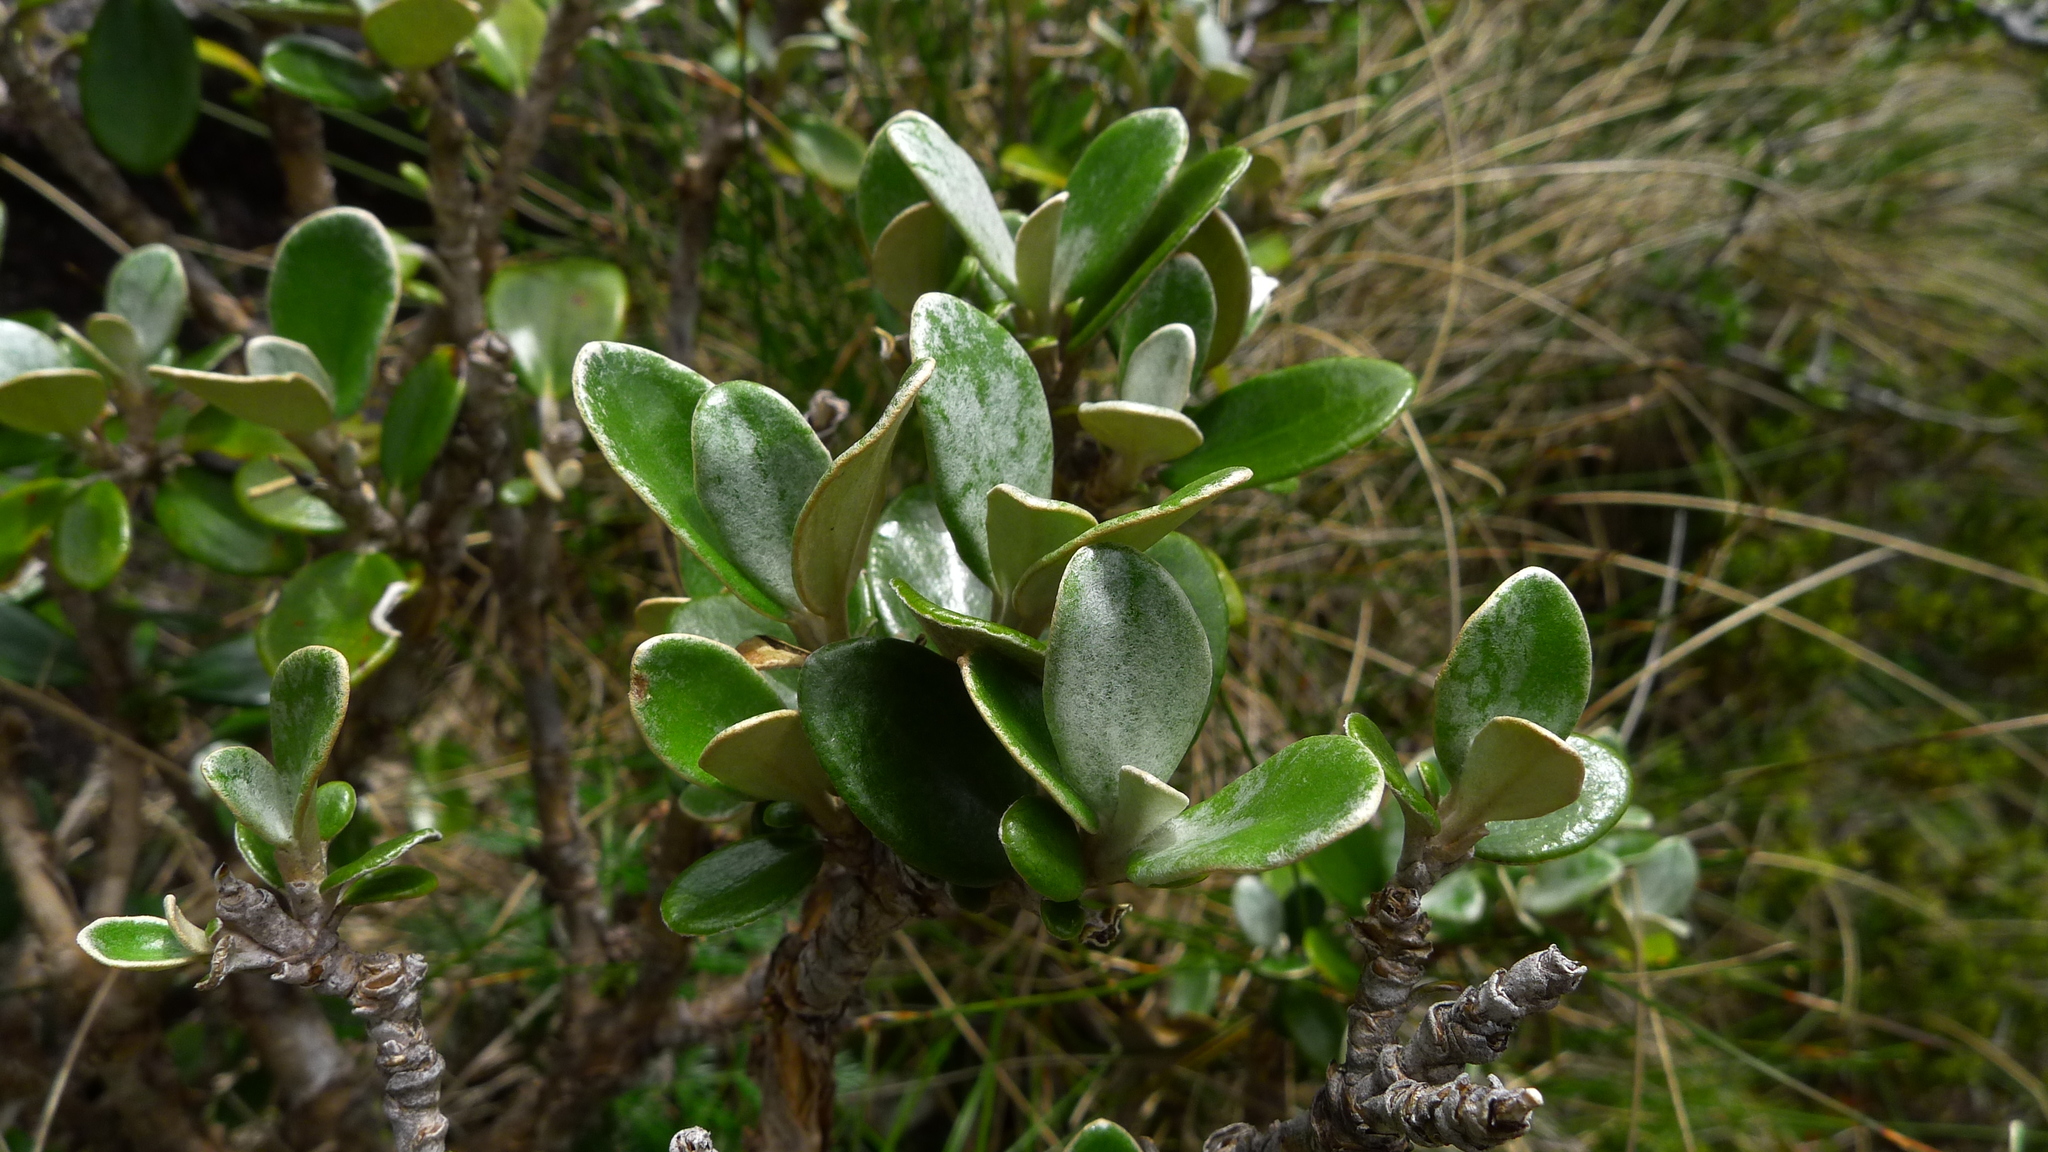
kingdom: Plantae
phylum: Tracheophyta
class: Magnoliopsida
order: Asterales
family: Asteraceae
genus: Brachyglottis
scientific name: Brachyglottis bidwillii
